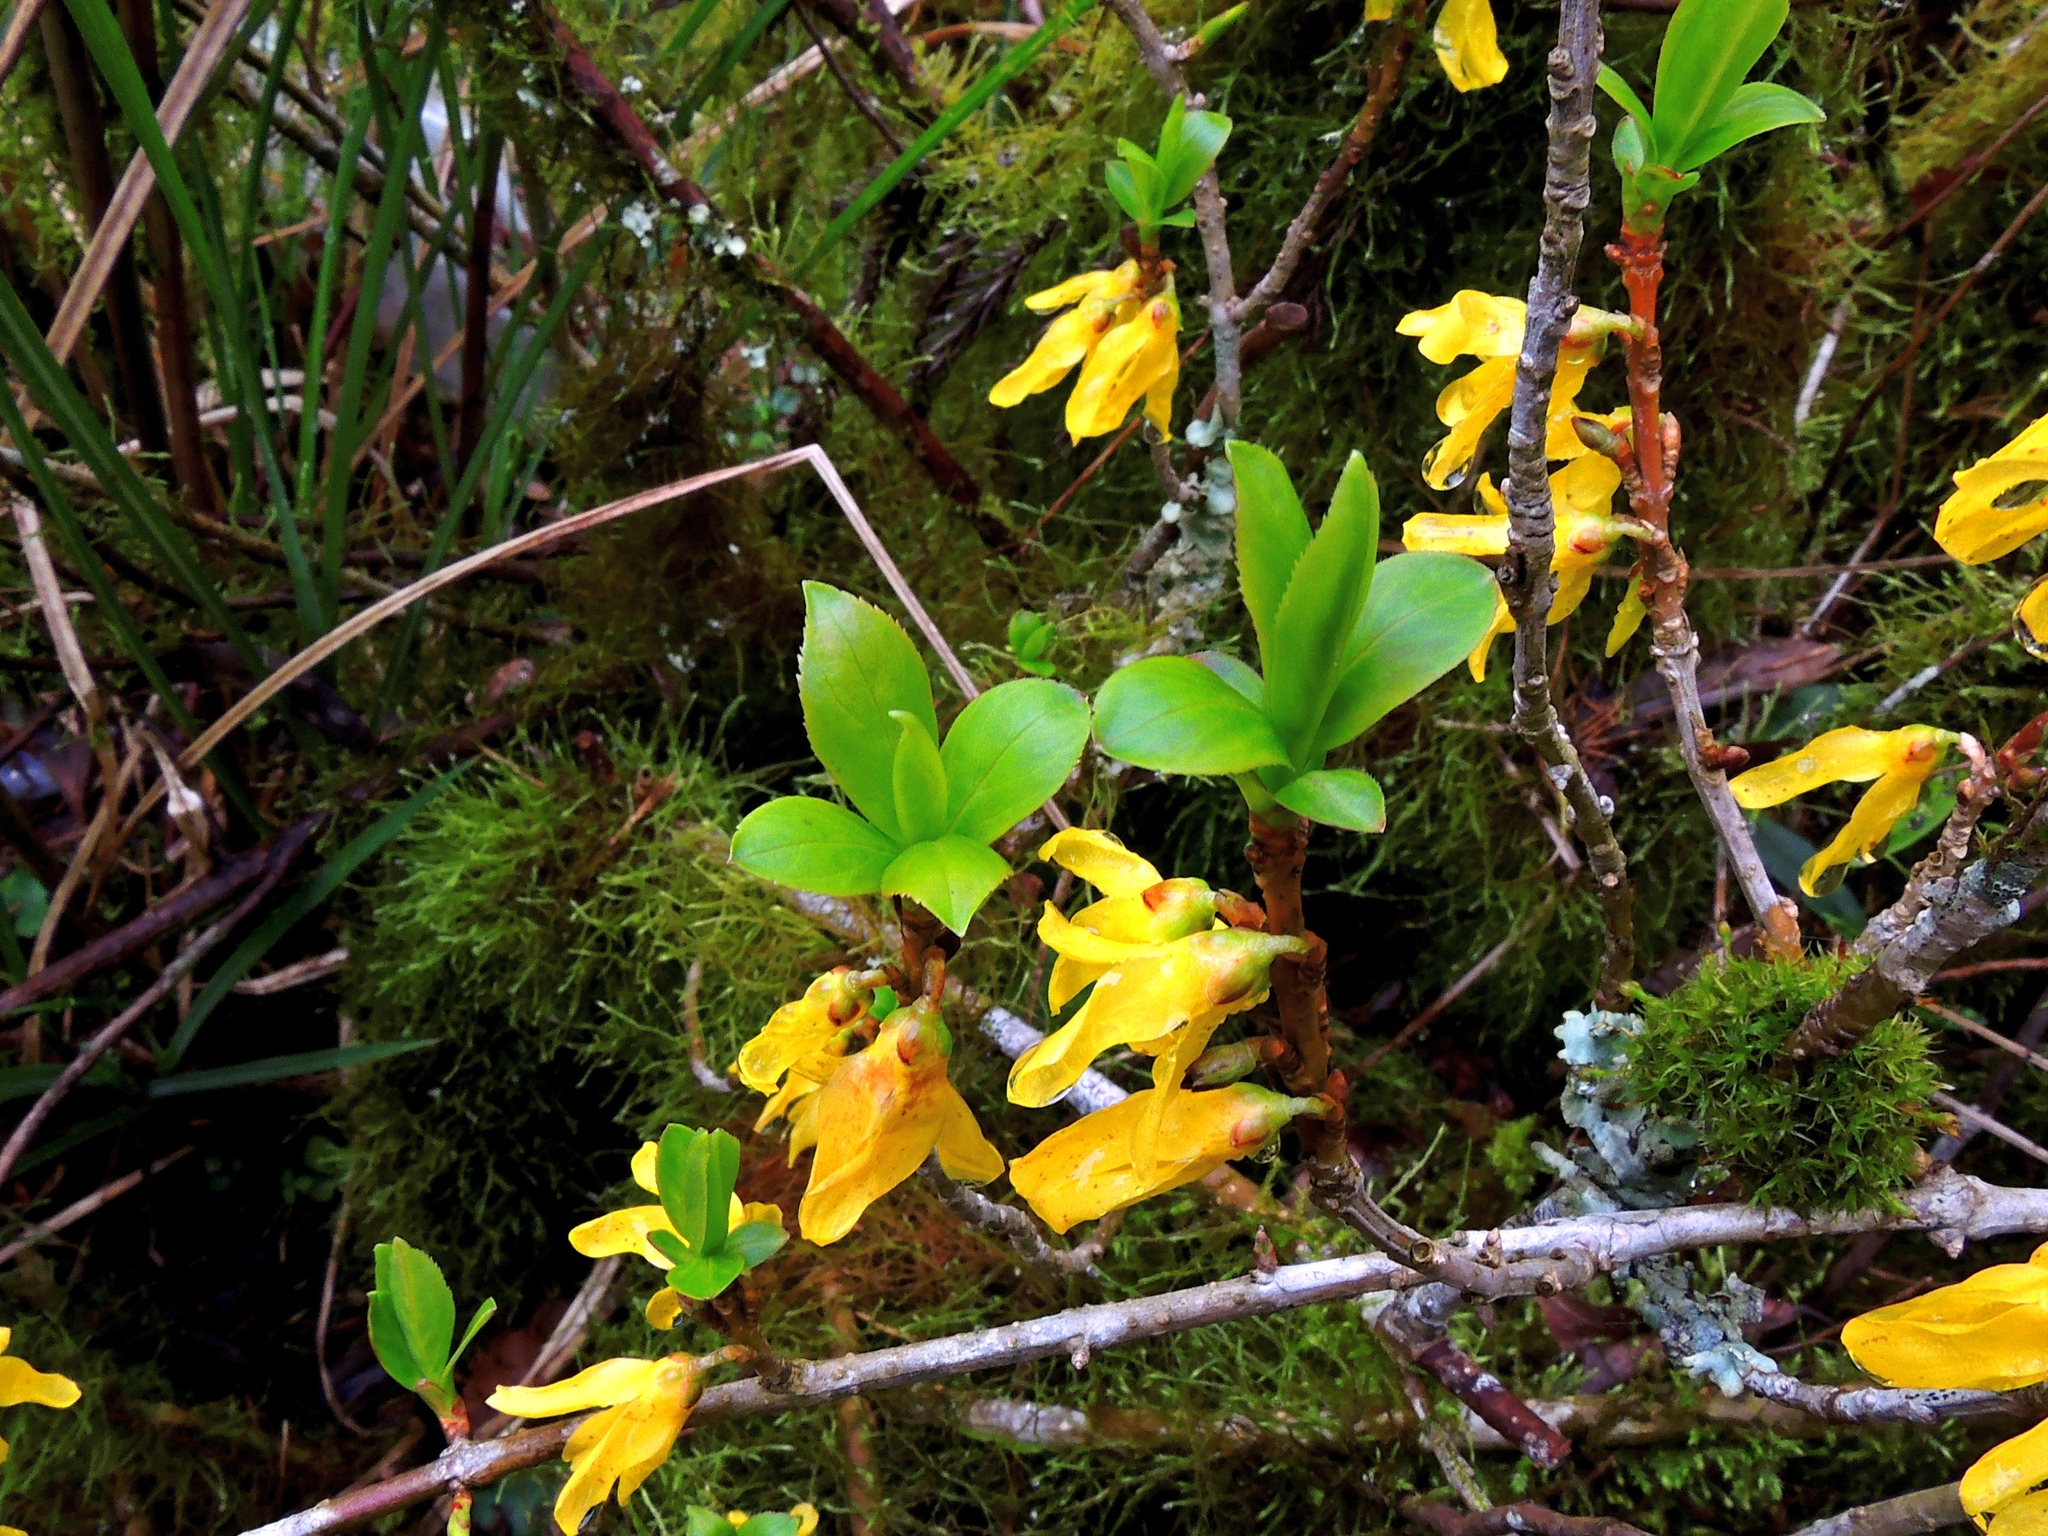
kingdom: Plantae
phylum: Tracheophyta
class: Magnoliopsida
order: Lamiales
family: Oleaceae
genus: Forsythia
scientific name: Forsythia suspensa
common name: Weeping forsythia
